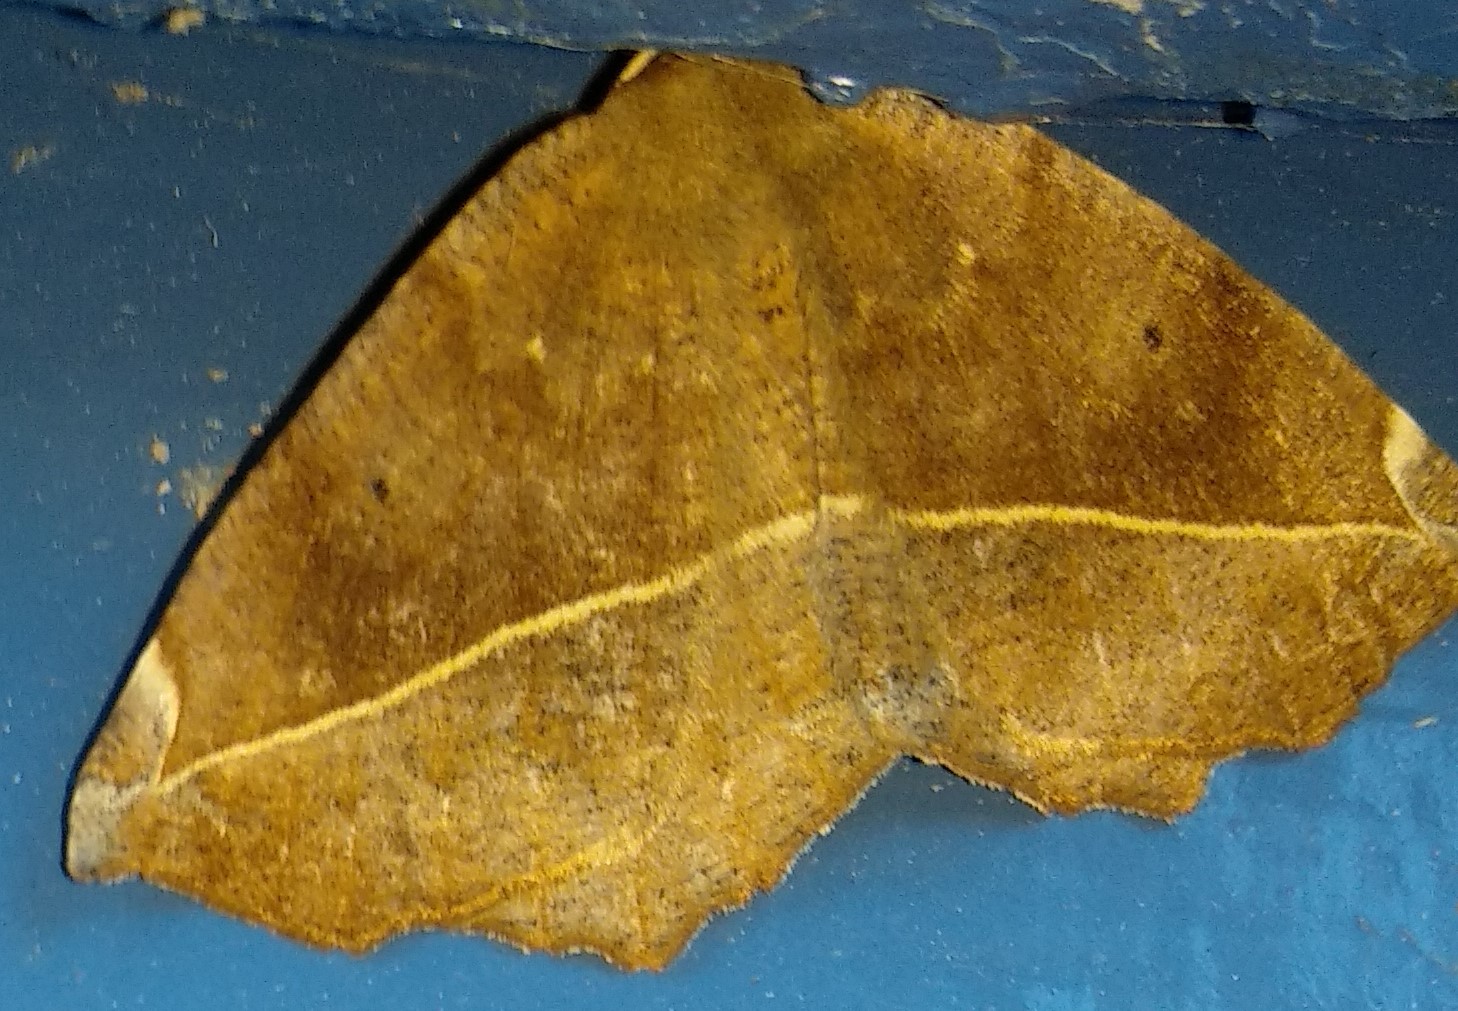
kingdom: Animalia
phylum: Arthropoda
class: Insecta
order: Lepidoptera
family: Geometridae
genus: Eutrapela
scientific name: Eutrapela clemataria
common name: Curved-toothed geometer
